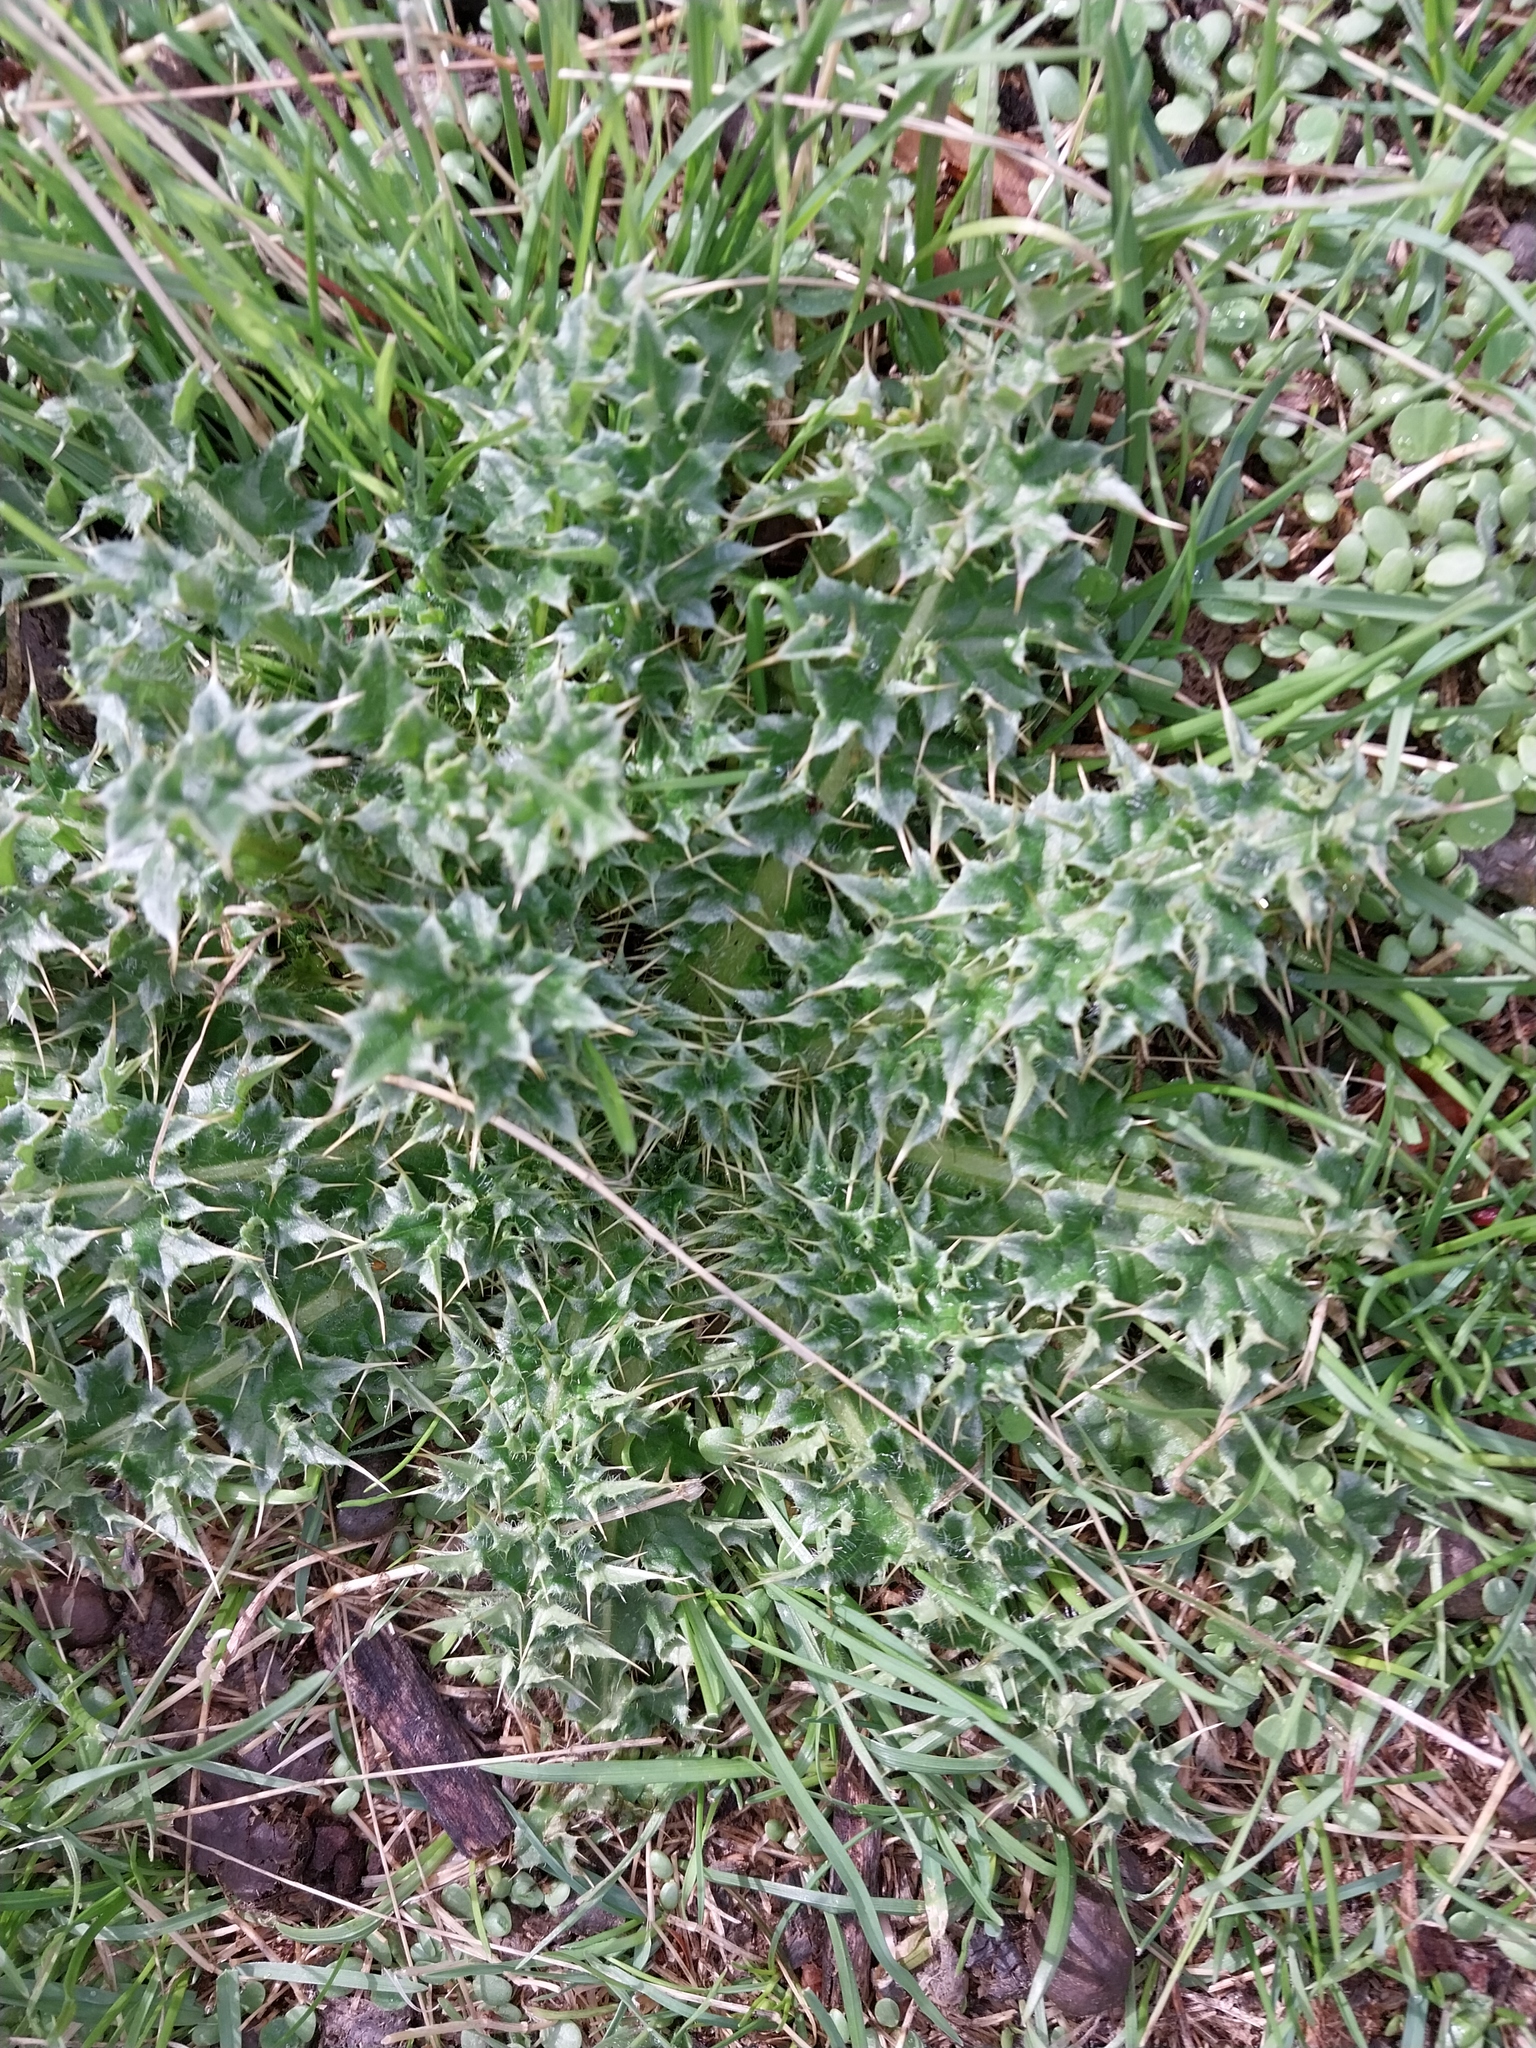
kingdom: Plantae
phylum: Tracheophyta
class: Magnoliopsida
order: Asterales
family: Asteraceae
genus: Carduus
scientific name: Carduus nutans
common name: Musk thistle
